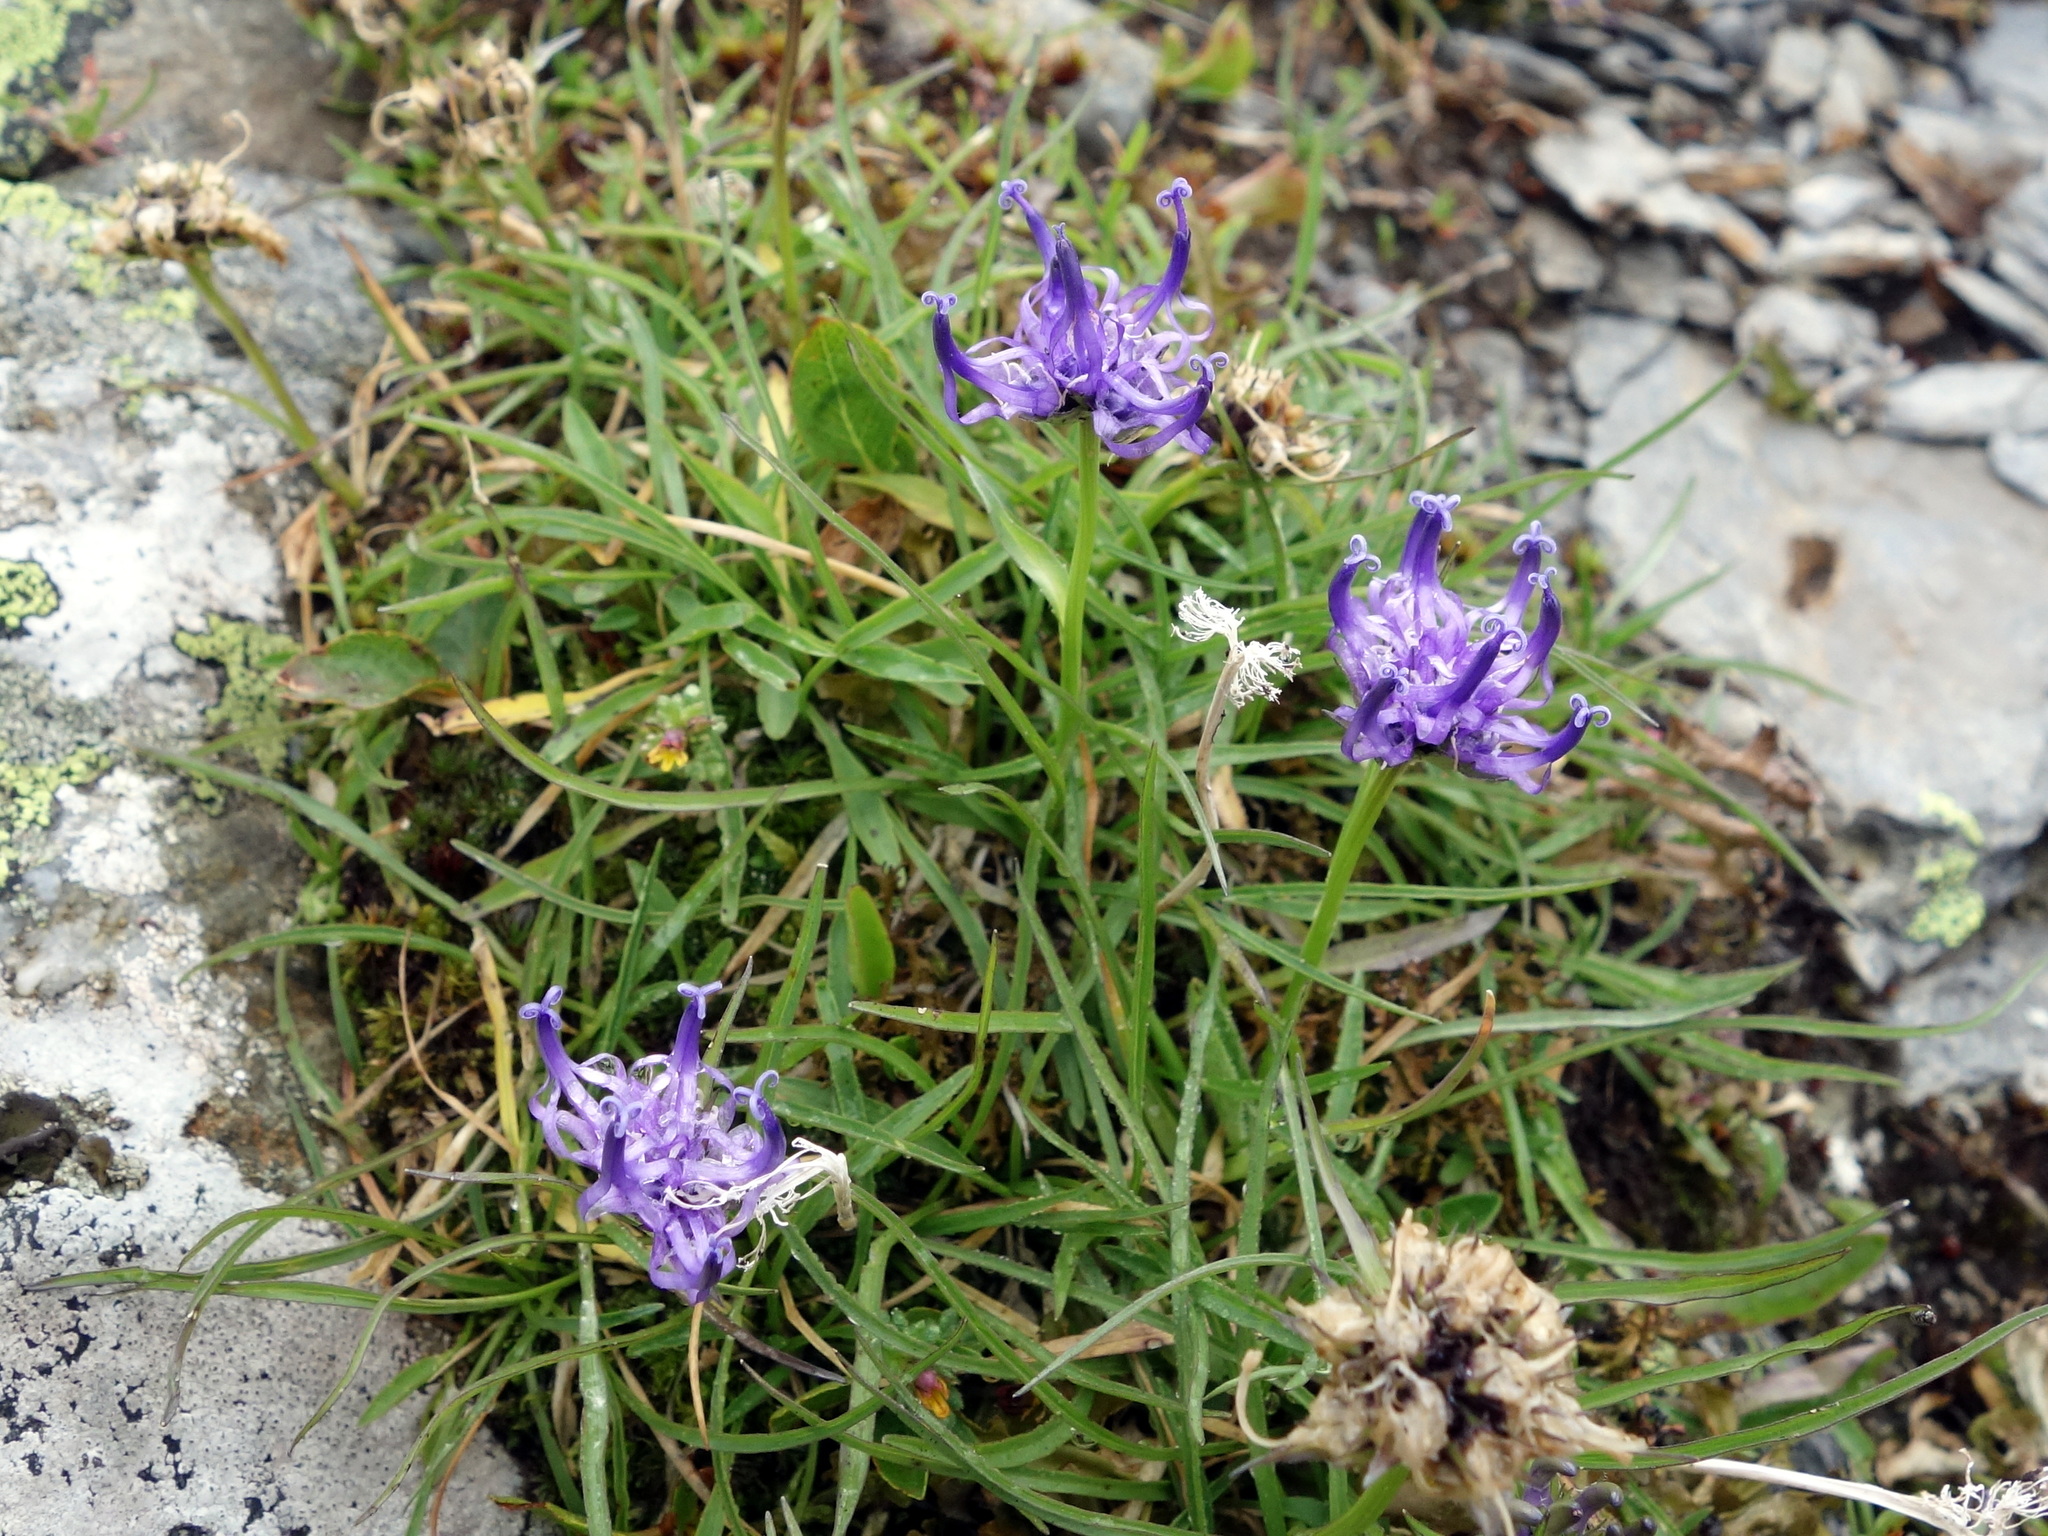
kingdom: Plantae
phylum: Tracheophyta
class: Magnoliopsida
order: Asterales
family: Campanulaceae
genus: Phyteuma
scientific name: Phyteuma hemisphaericum
